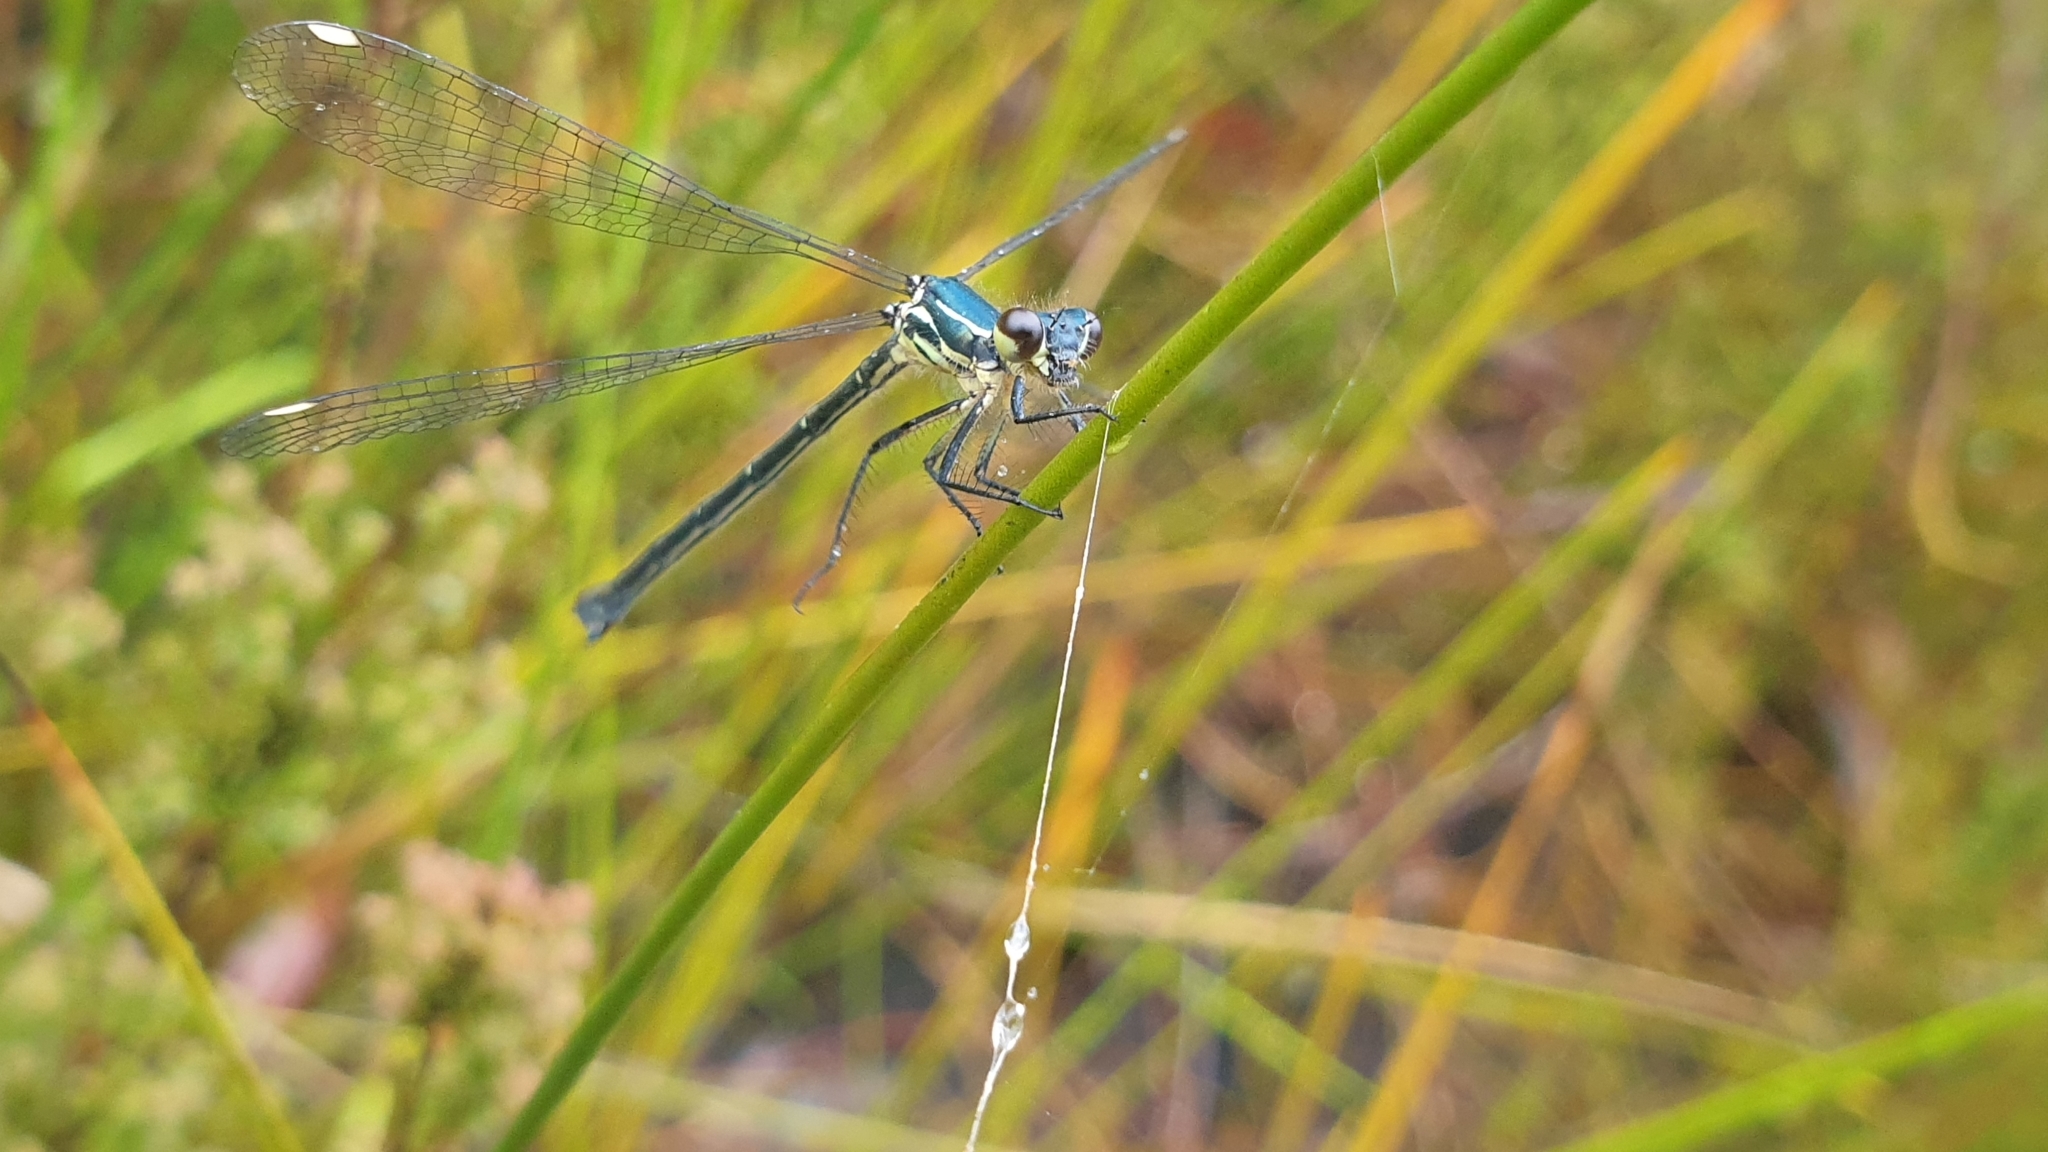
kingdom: Animalia
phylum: Arthropoda
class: Insecta
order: Odonata
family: Argiolestidae
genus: Griseargiolestes
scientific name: Griseargiolestes eboracus
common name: Grey-chested flatwing
